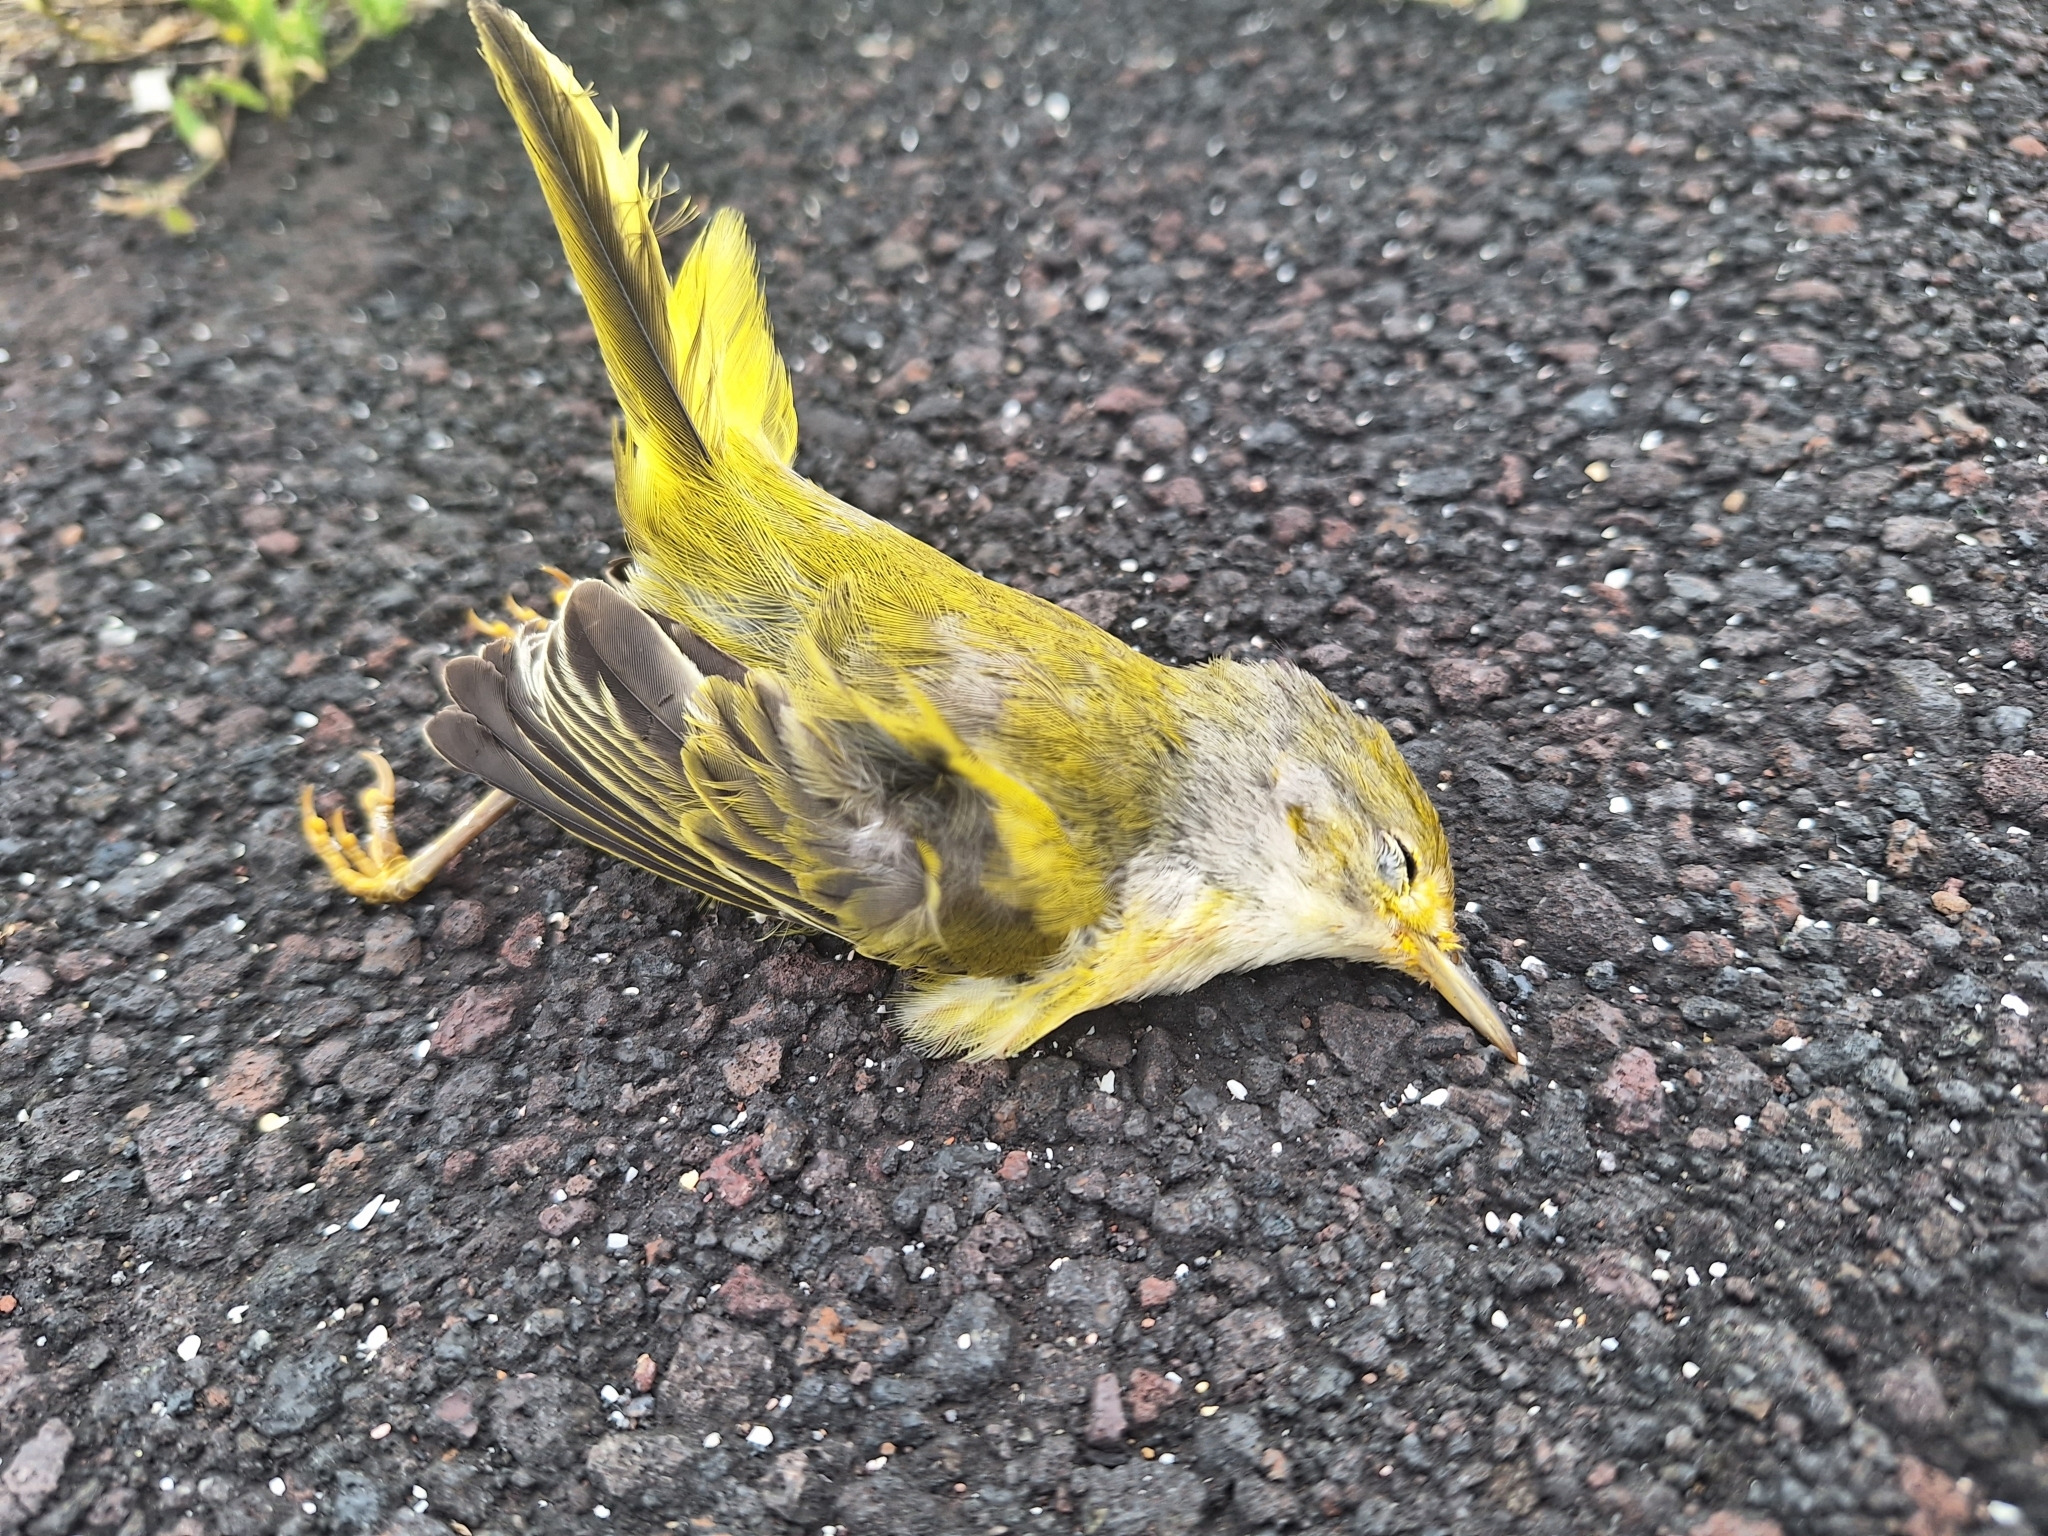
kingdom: Animalia
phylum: Chordata
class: Aves
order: Passeriformes
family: Parulidae
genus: Setophaga
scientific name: Setophaga petechia
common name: Yellow warbler
